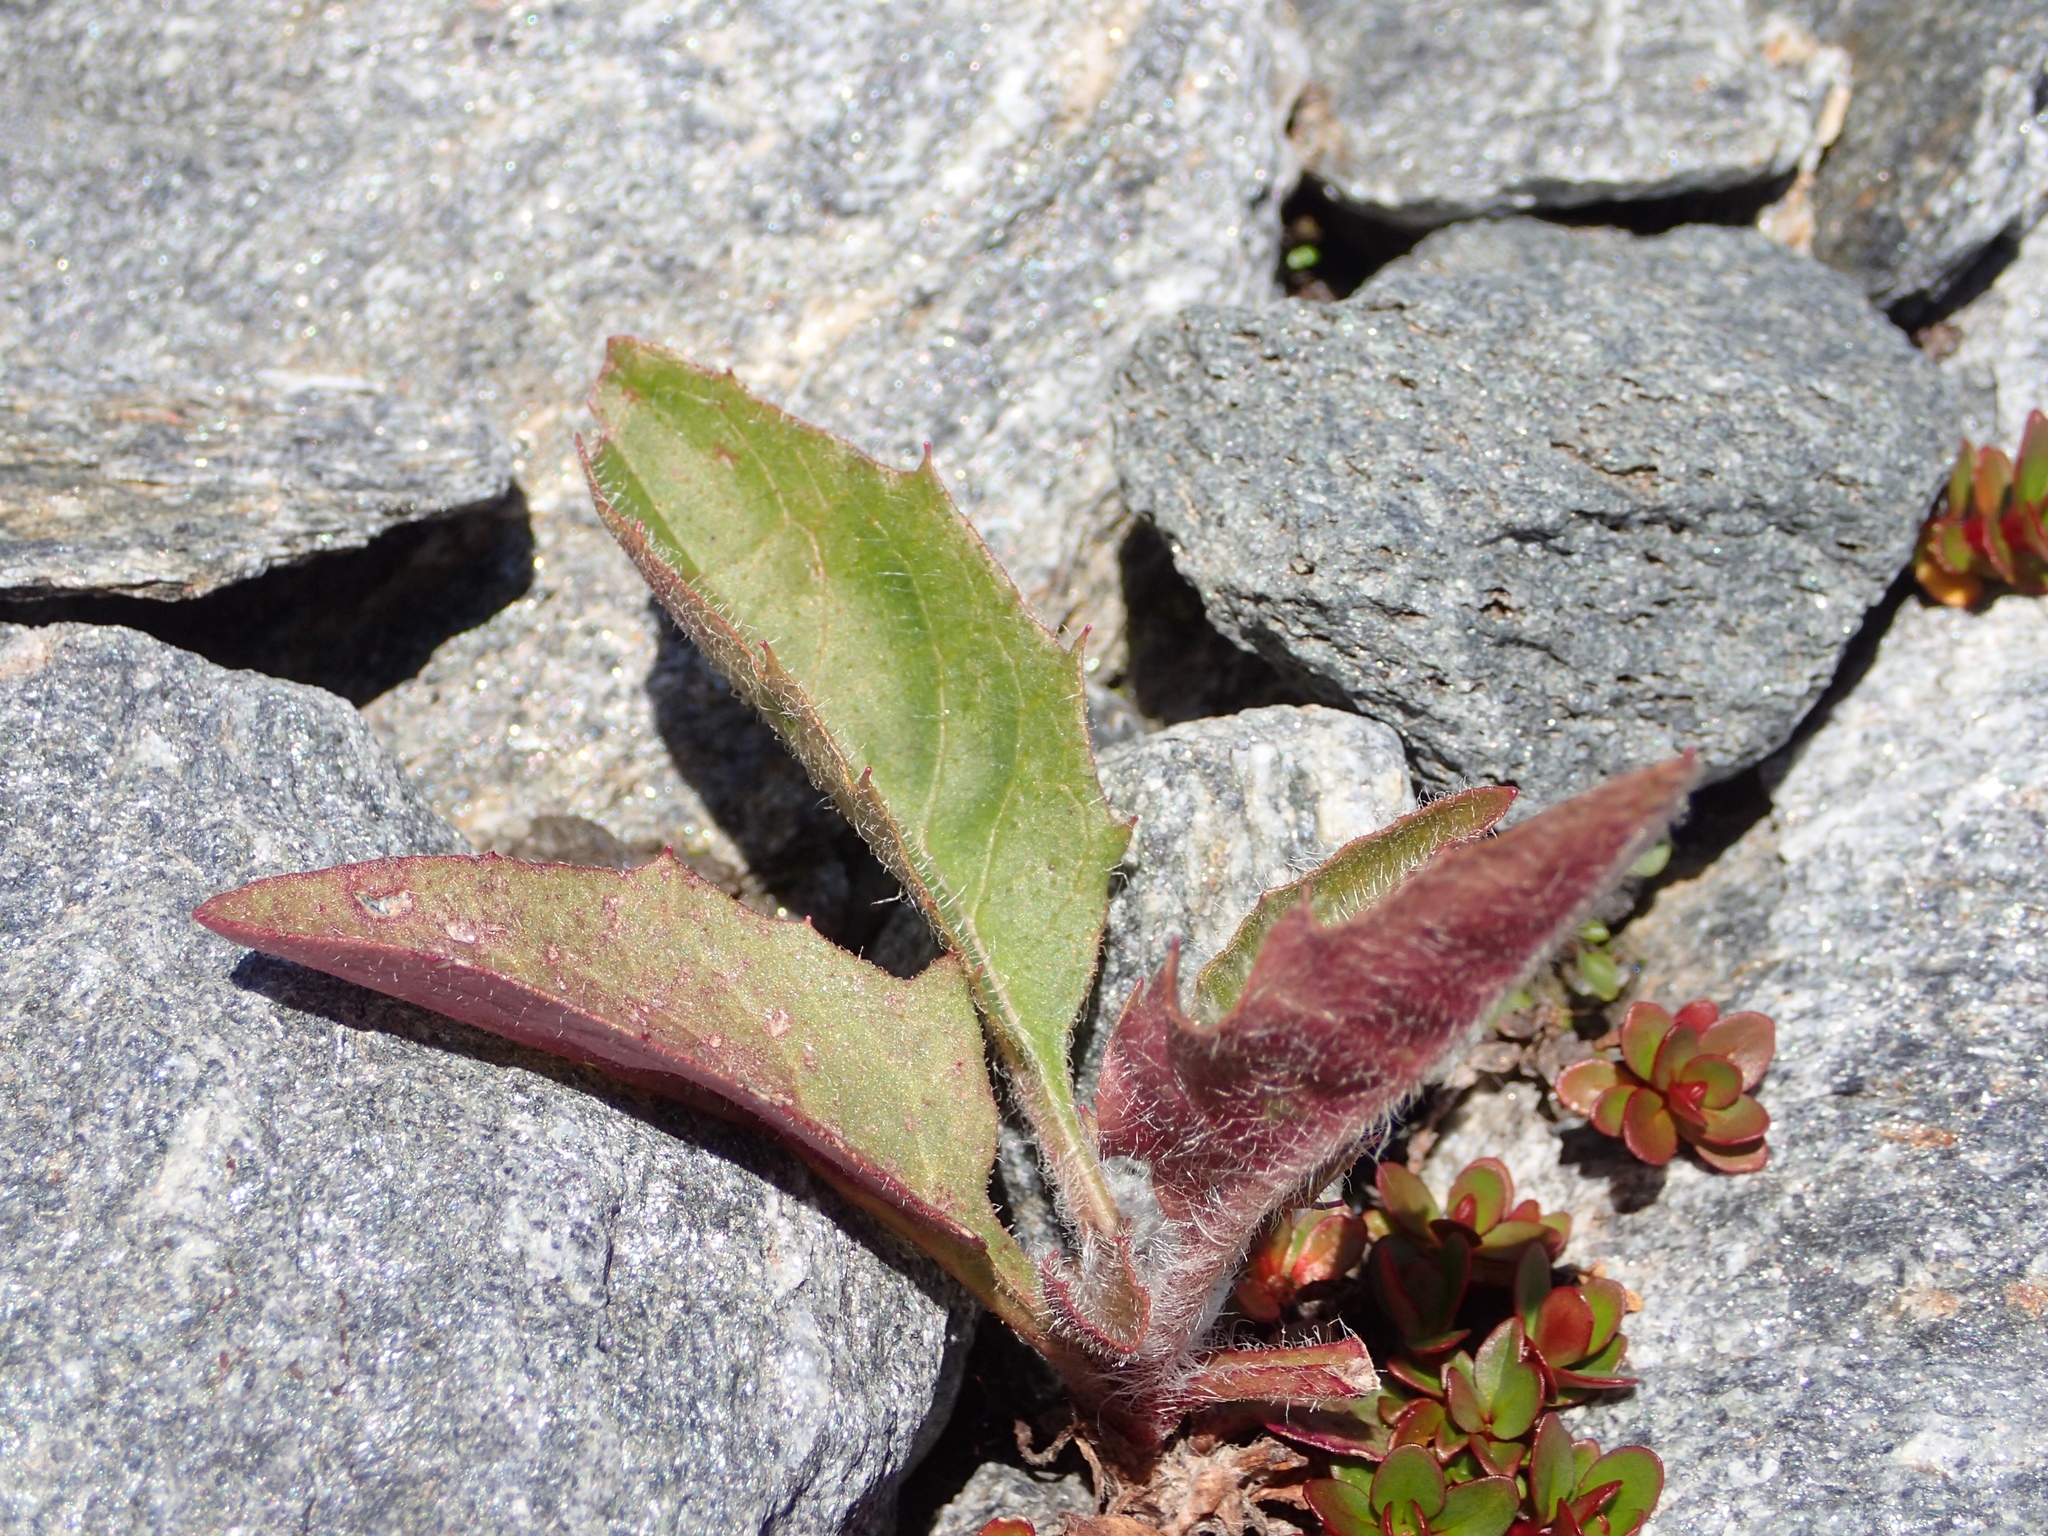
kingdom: Plantae
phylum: Tracheophyta
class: Magnoliopsida
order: Asterales
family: Asteraceae
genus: Hieracium
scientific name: Hieracium lepidulum
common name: Irregular-toothed hawkweed
